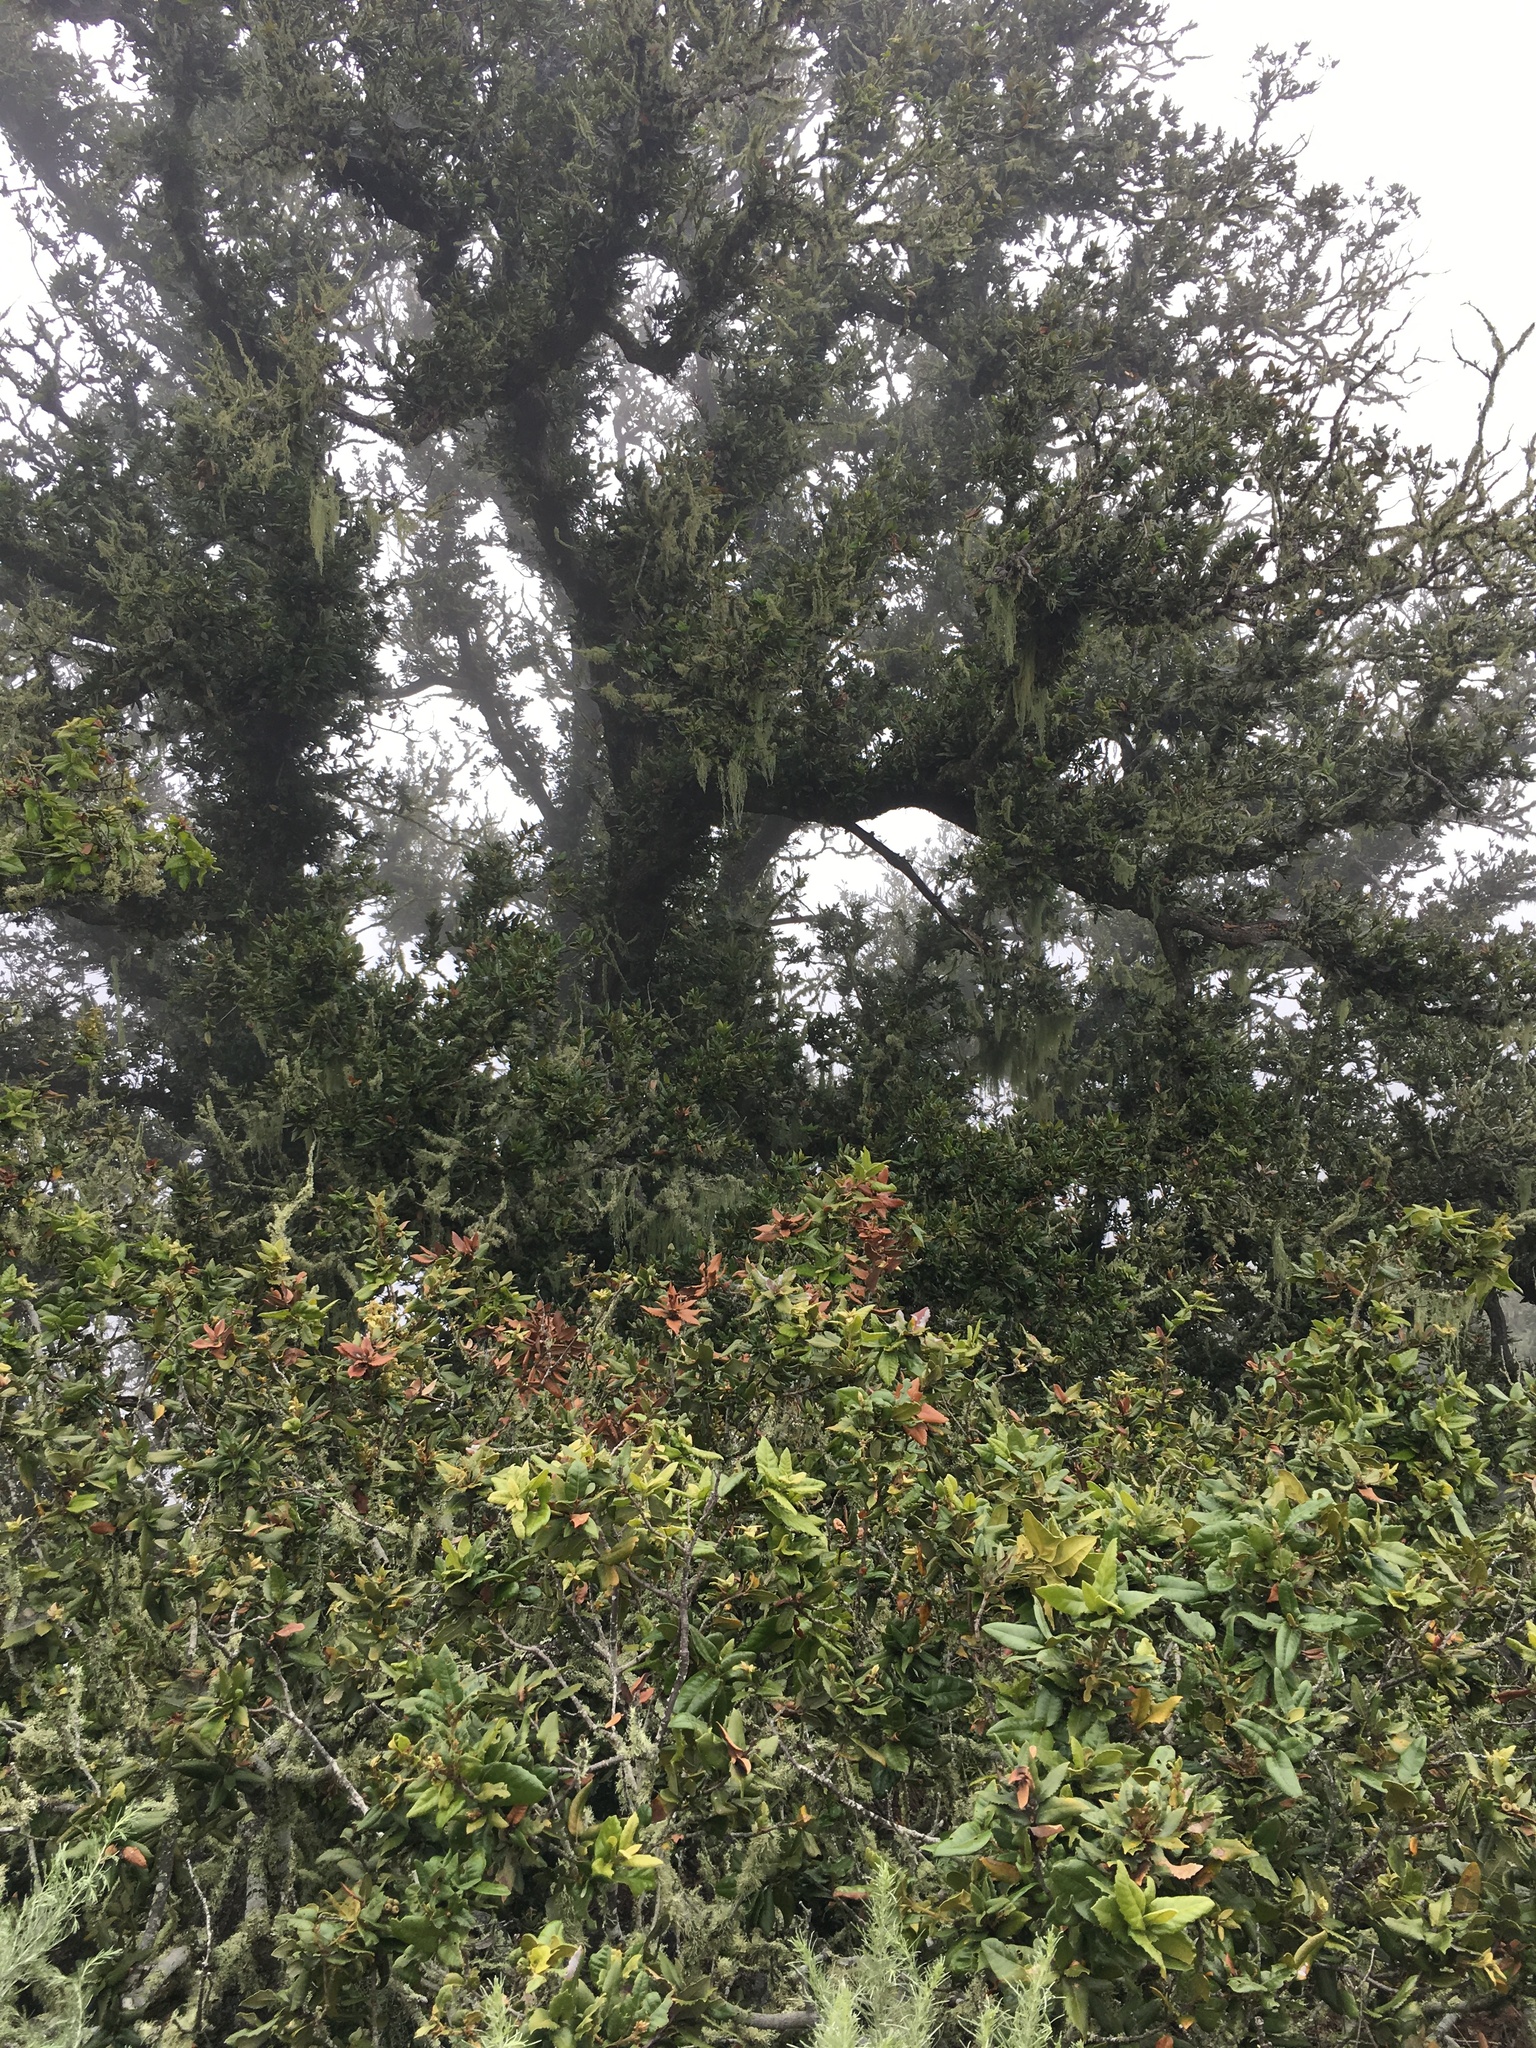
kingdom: Plantae
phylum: Tracheophyta
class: Magnoliopsida
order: Fagales
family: Fagaceae
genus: Quercus
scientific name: Quercus tomentella
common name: Island oak
